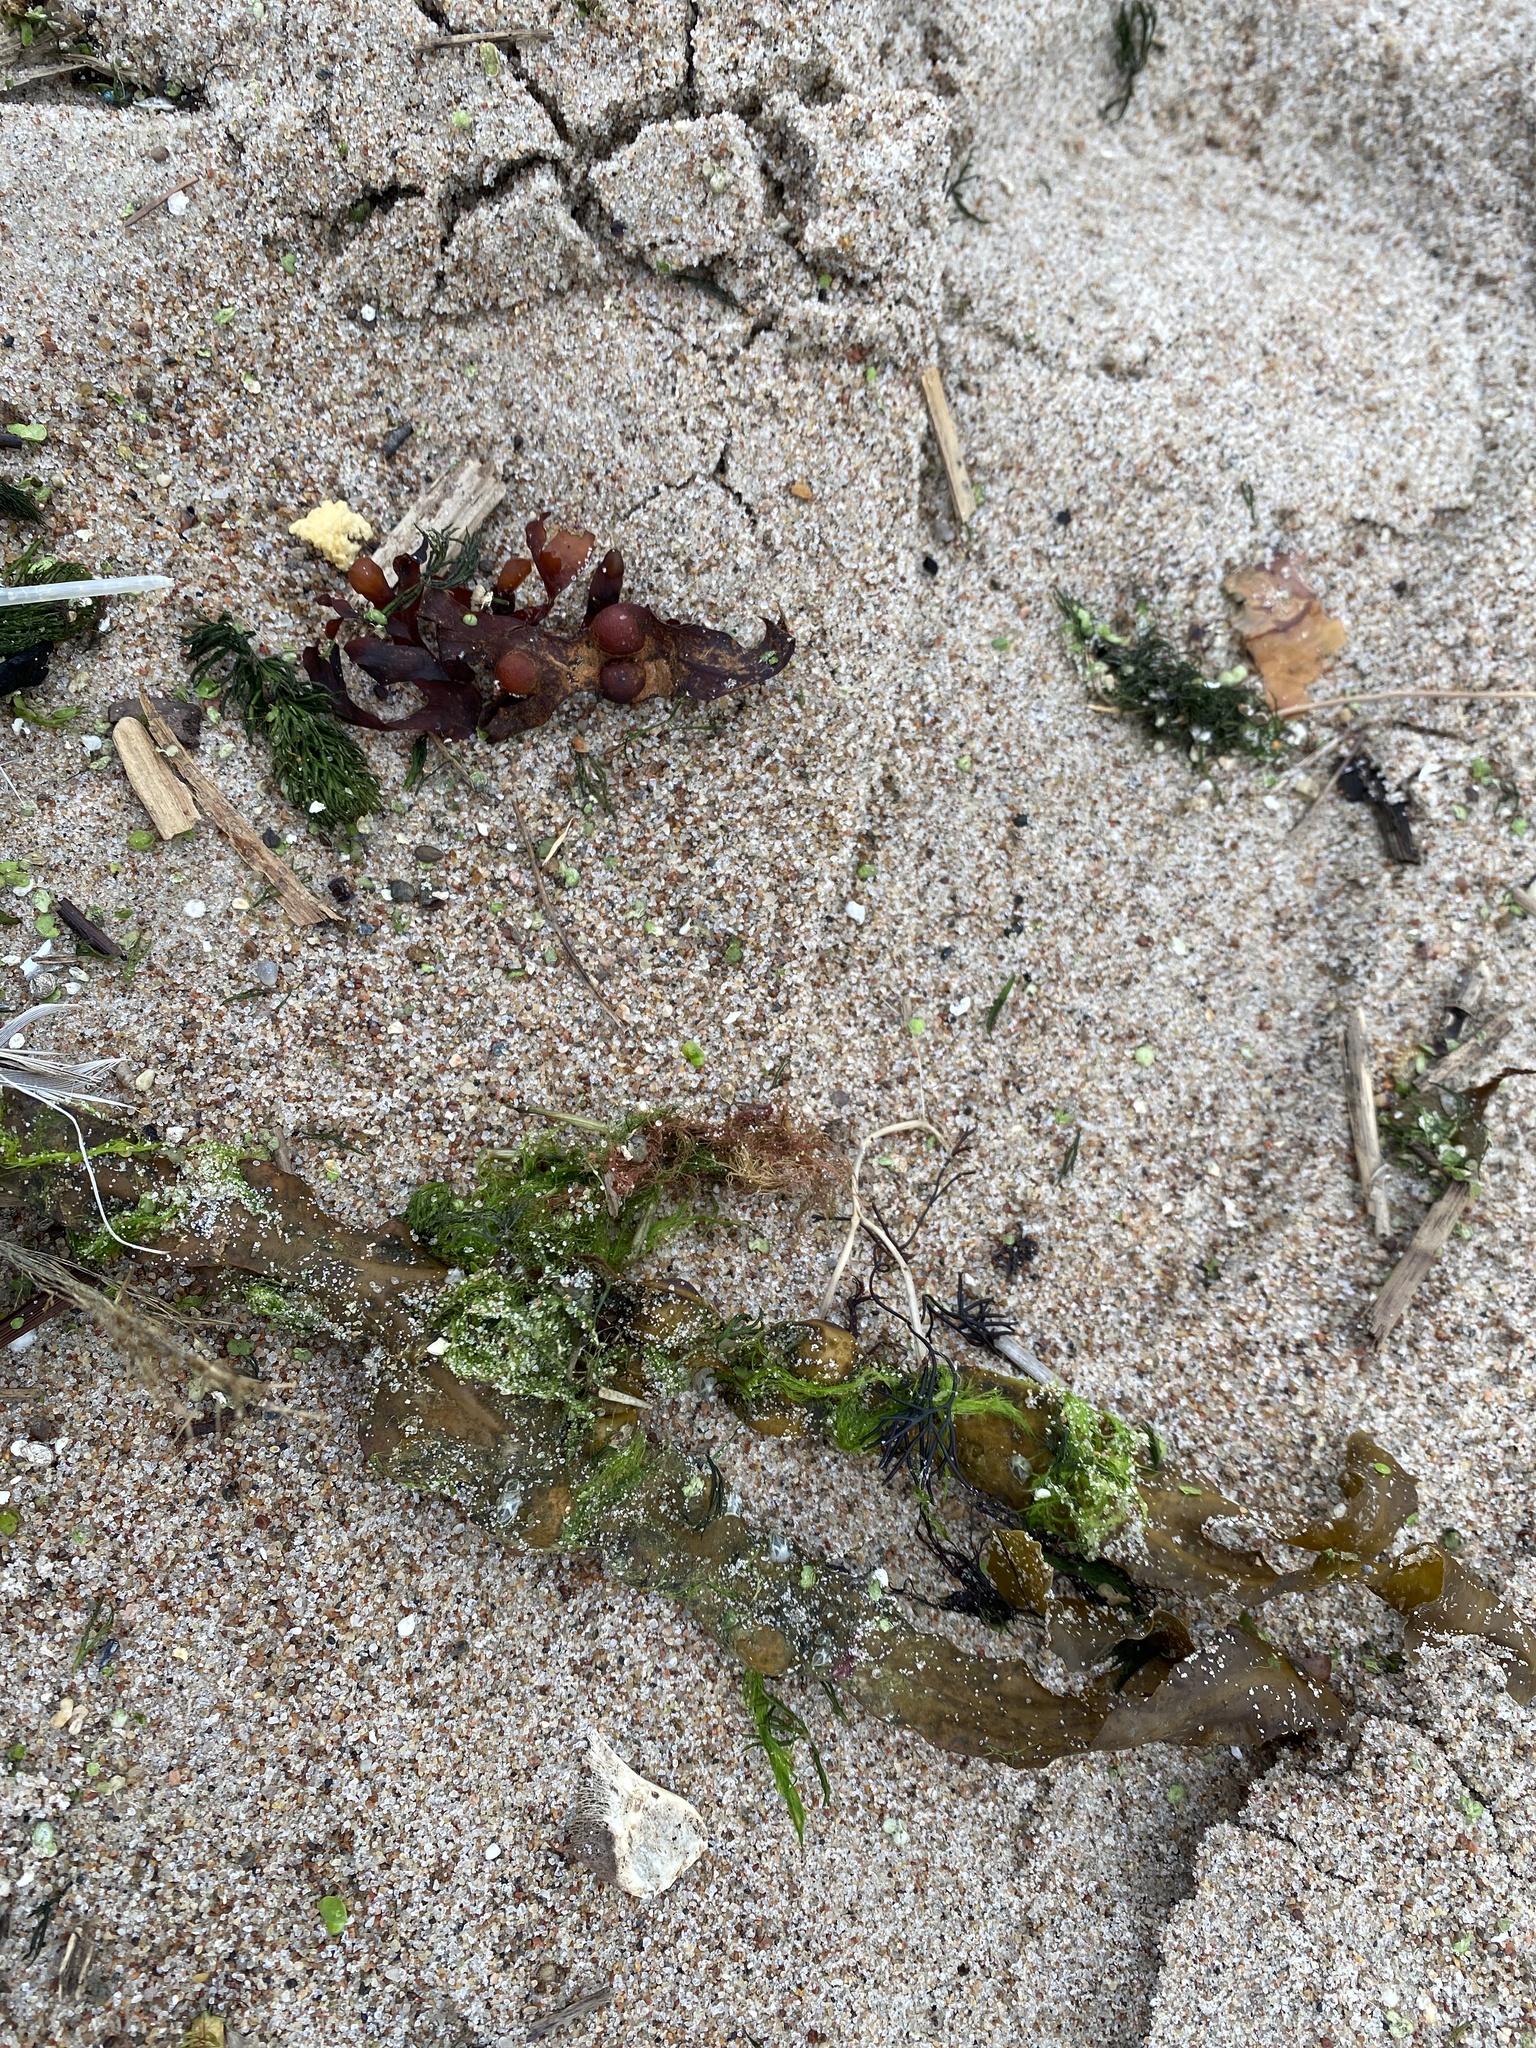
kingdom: Chromista
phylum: Ochrophyta
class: Phaeophyceae
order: Fucales
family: Fucaceae
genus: Fucus
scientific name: Fucus vesiculosus
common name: Bladder wrack
